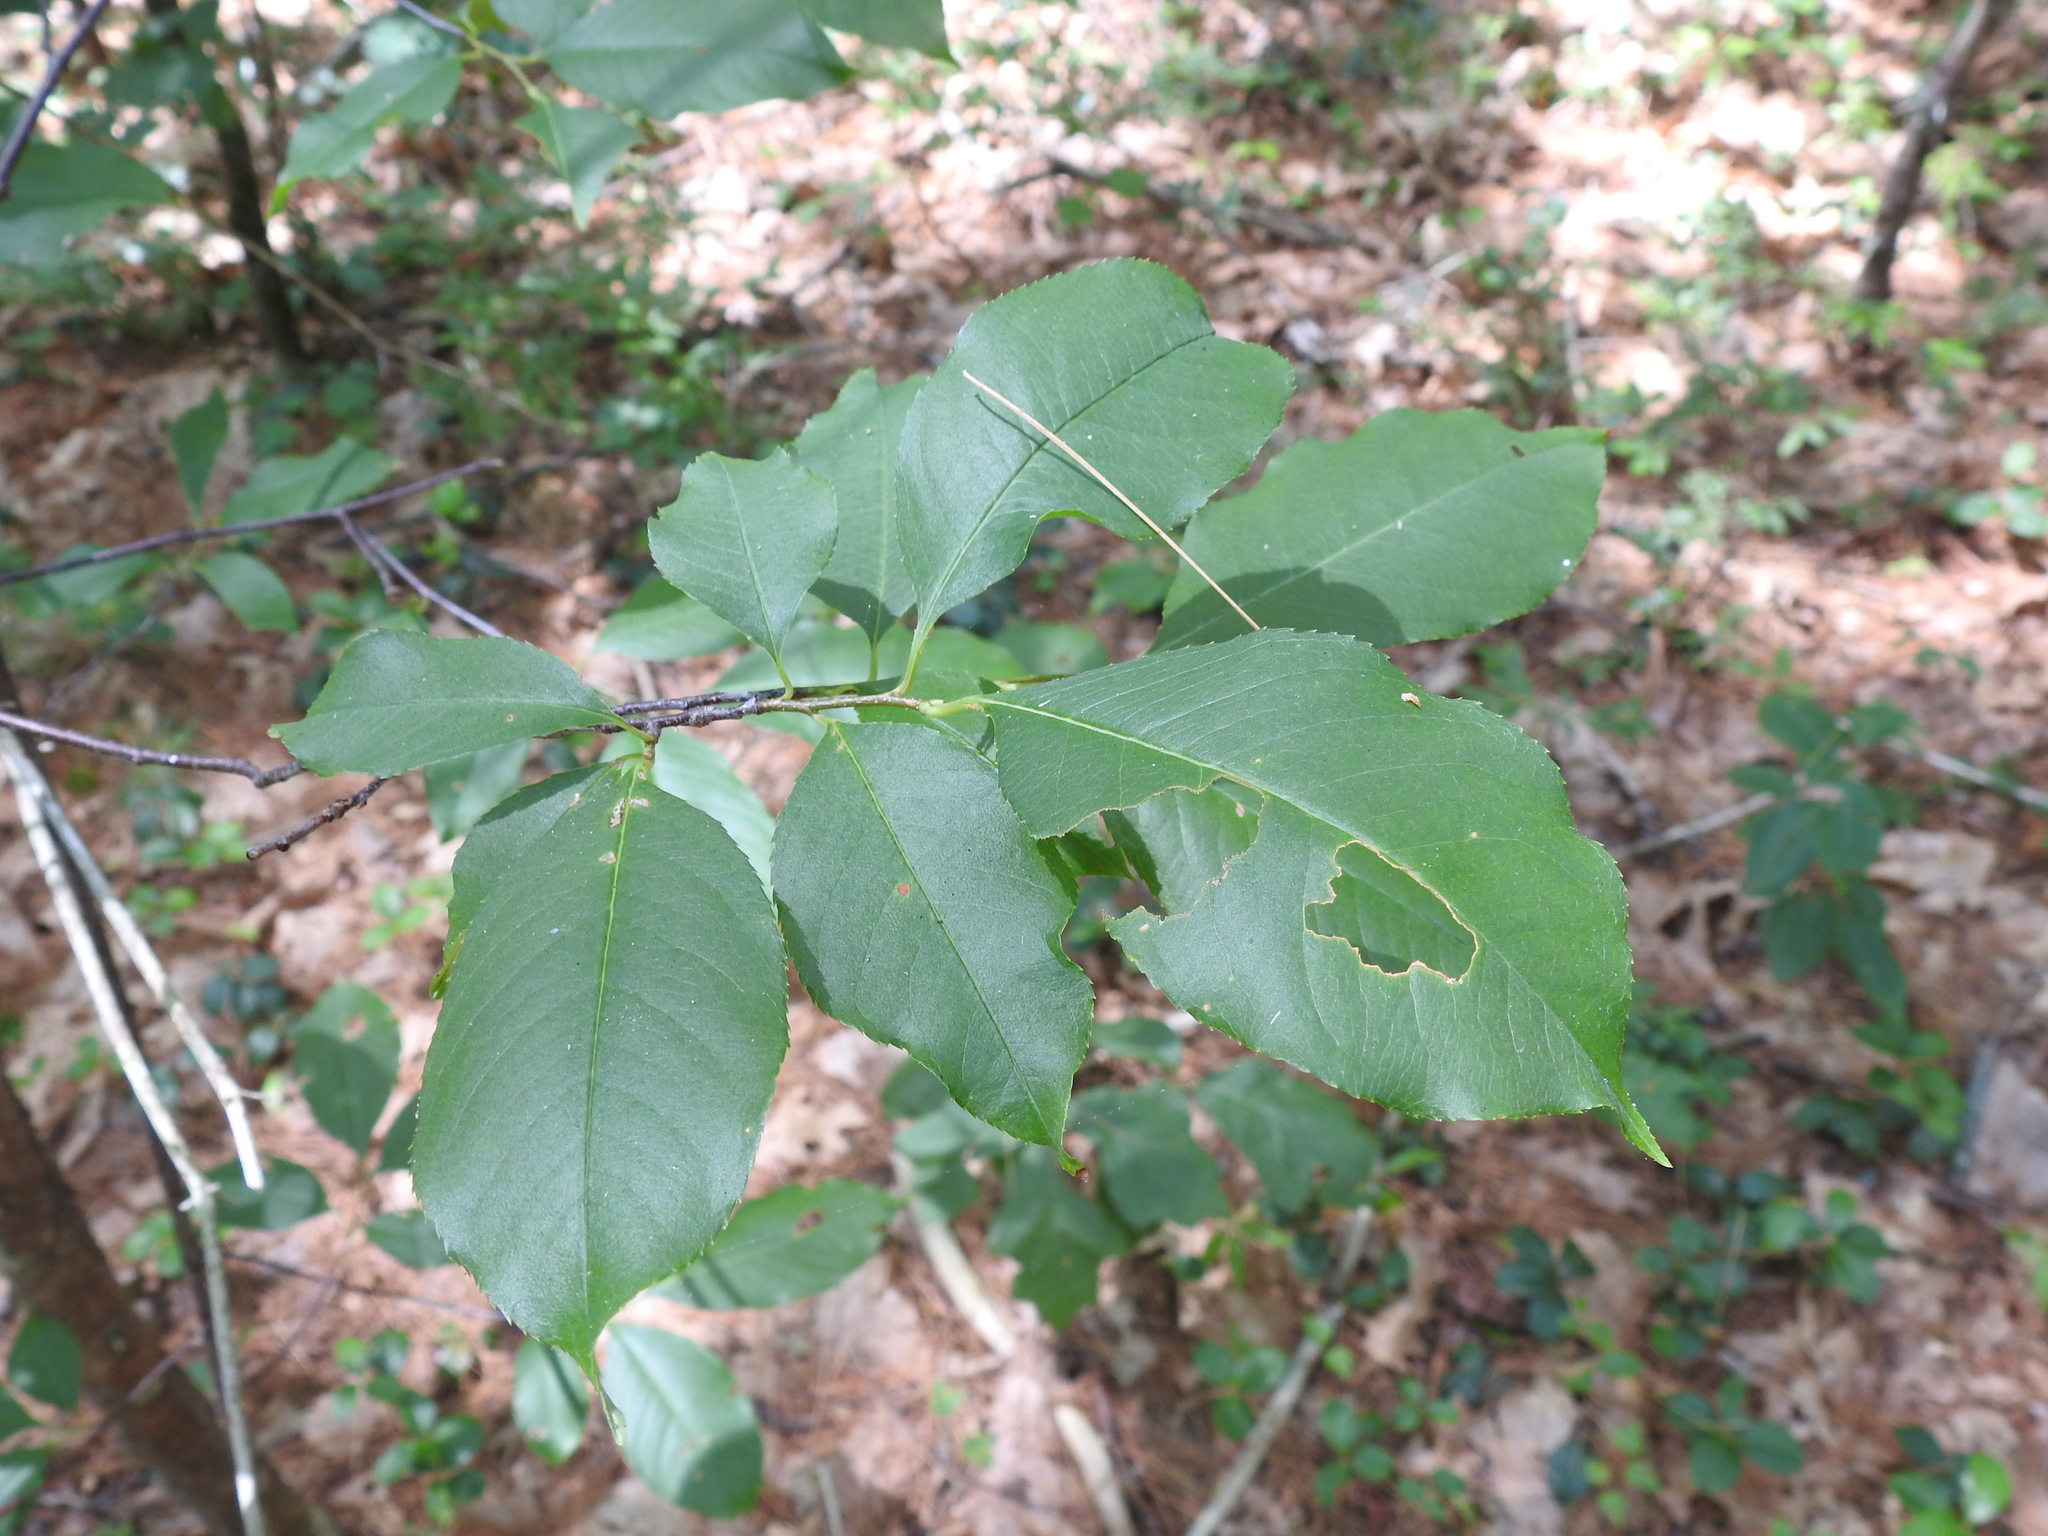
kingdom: Plantae
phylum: Tracheophyta
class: Magnoliopsida
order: Rosales
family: Rosaceae
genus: Prunus
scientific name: Prunus serotina
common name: Black cherry
